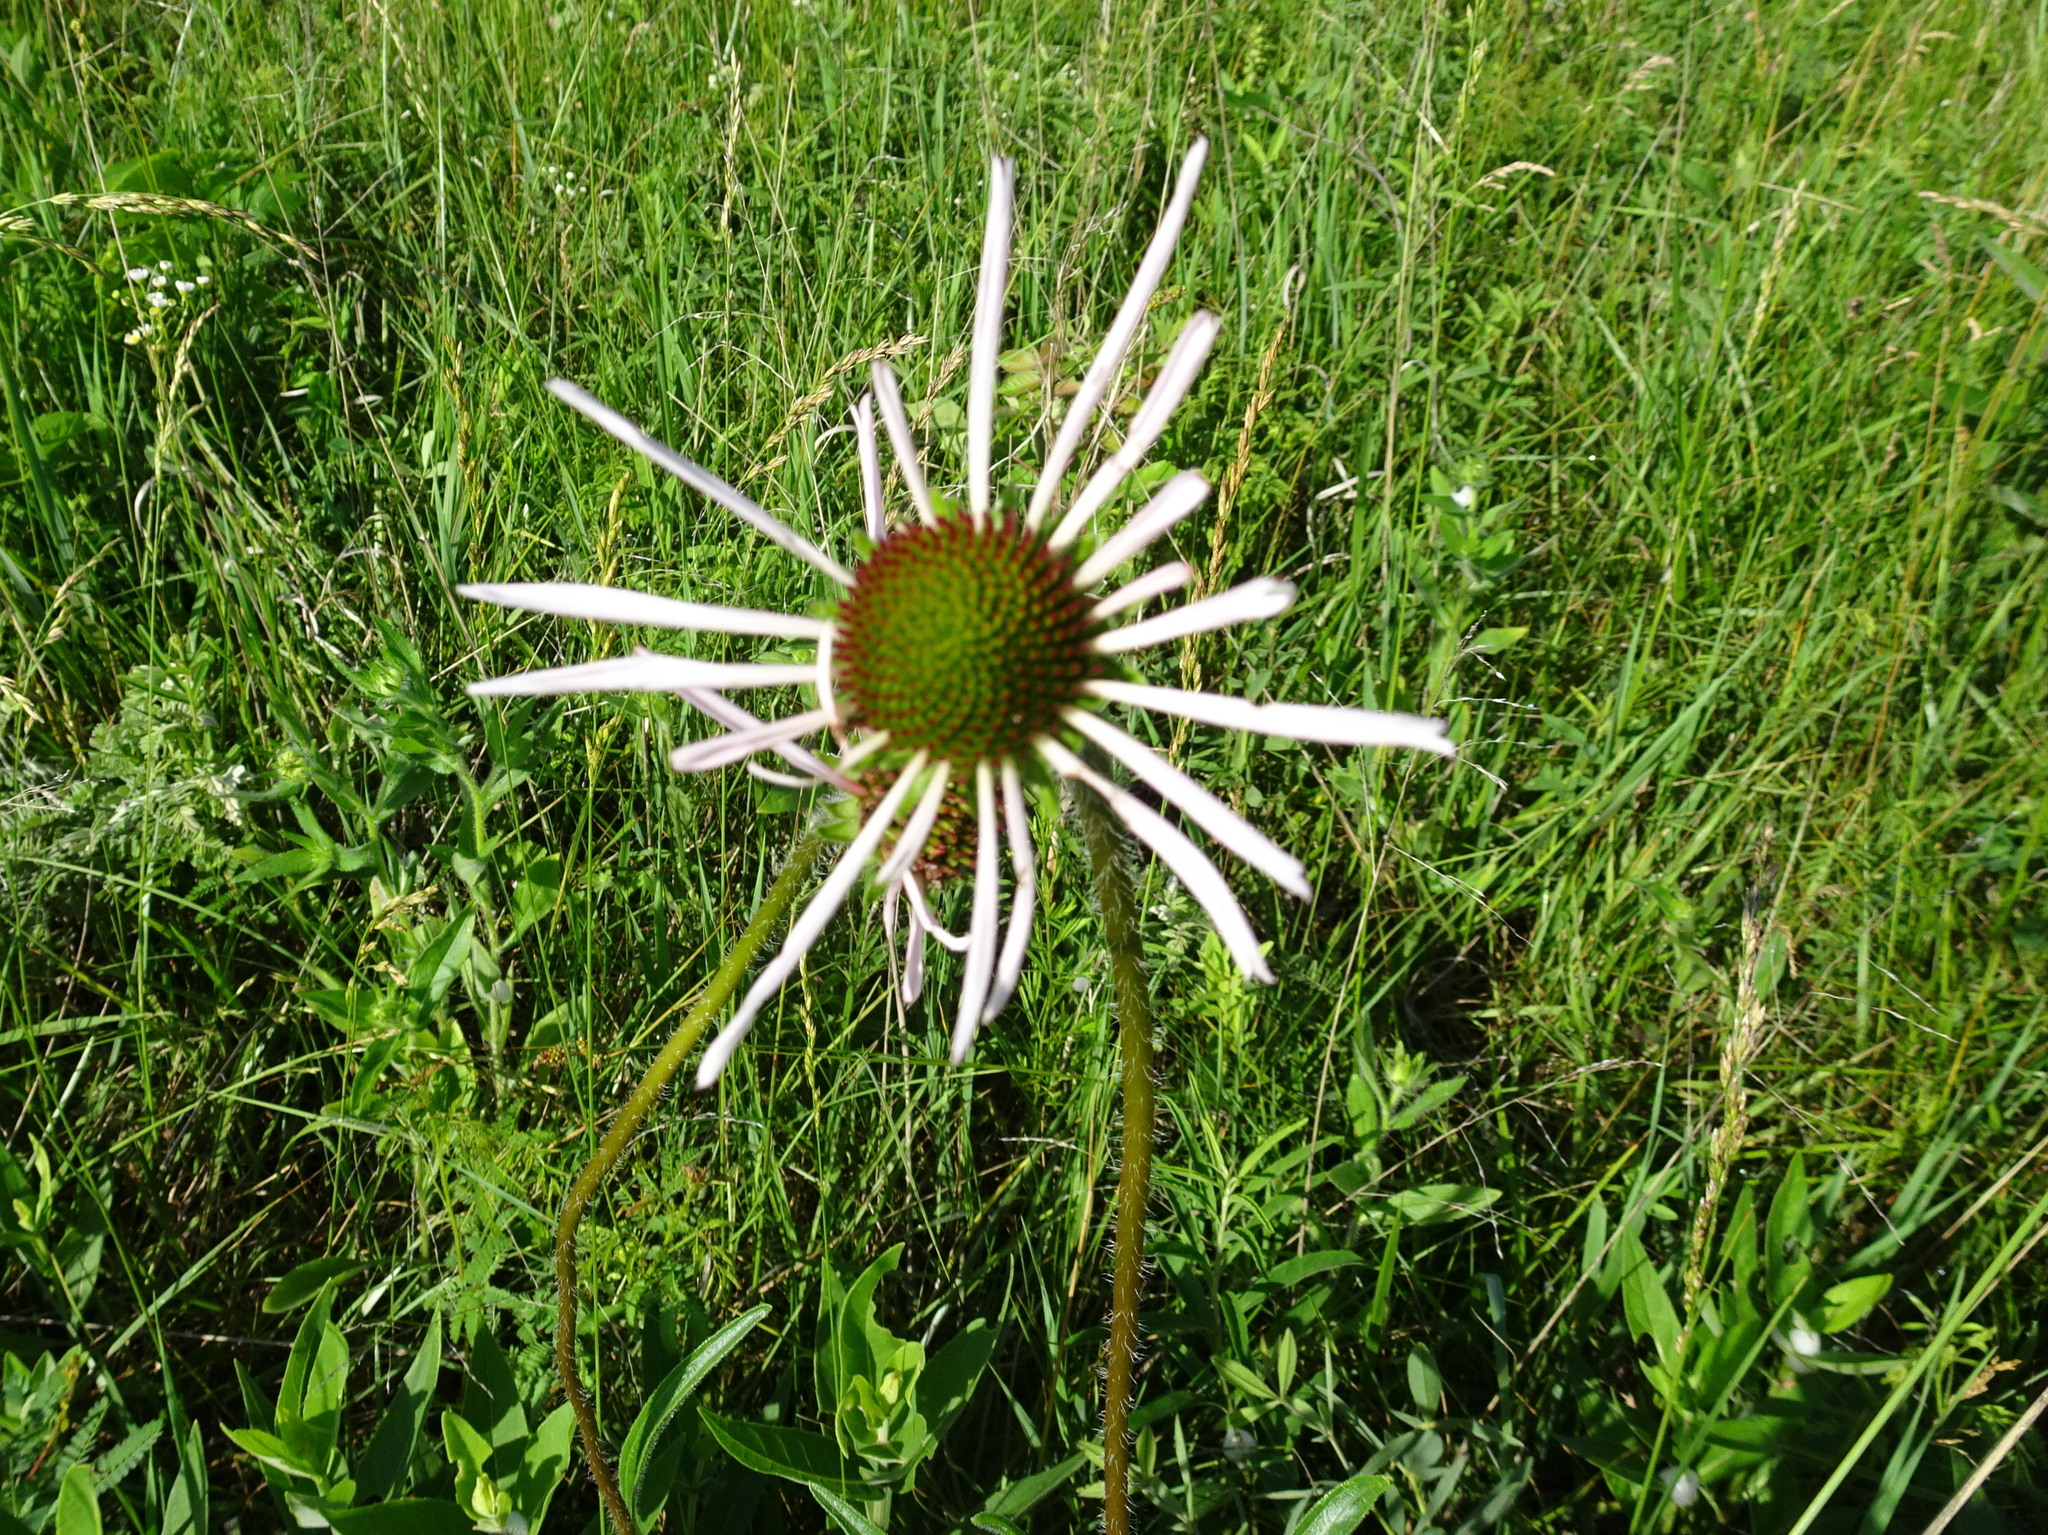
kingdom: Plantae
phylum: Tracheophyta
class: Magnoliopsida
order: Asterales
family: Asteraceae
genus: Echinacea
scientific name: Echinacea pallida
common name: Pale echinacea
